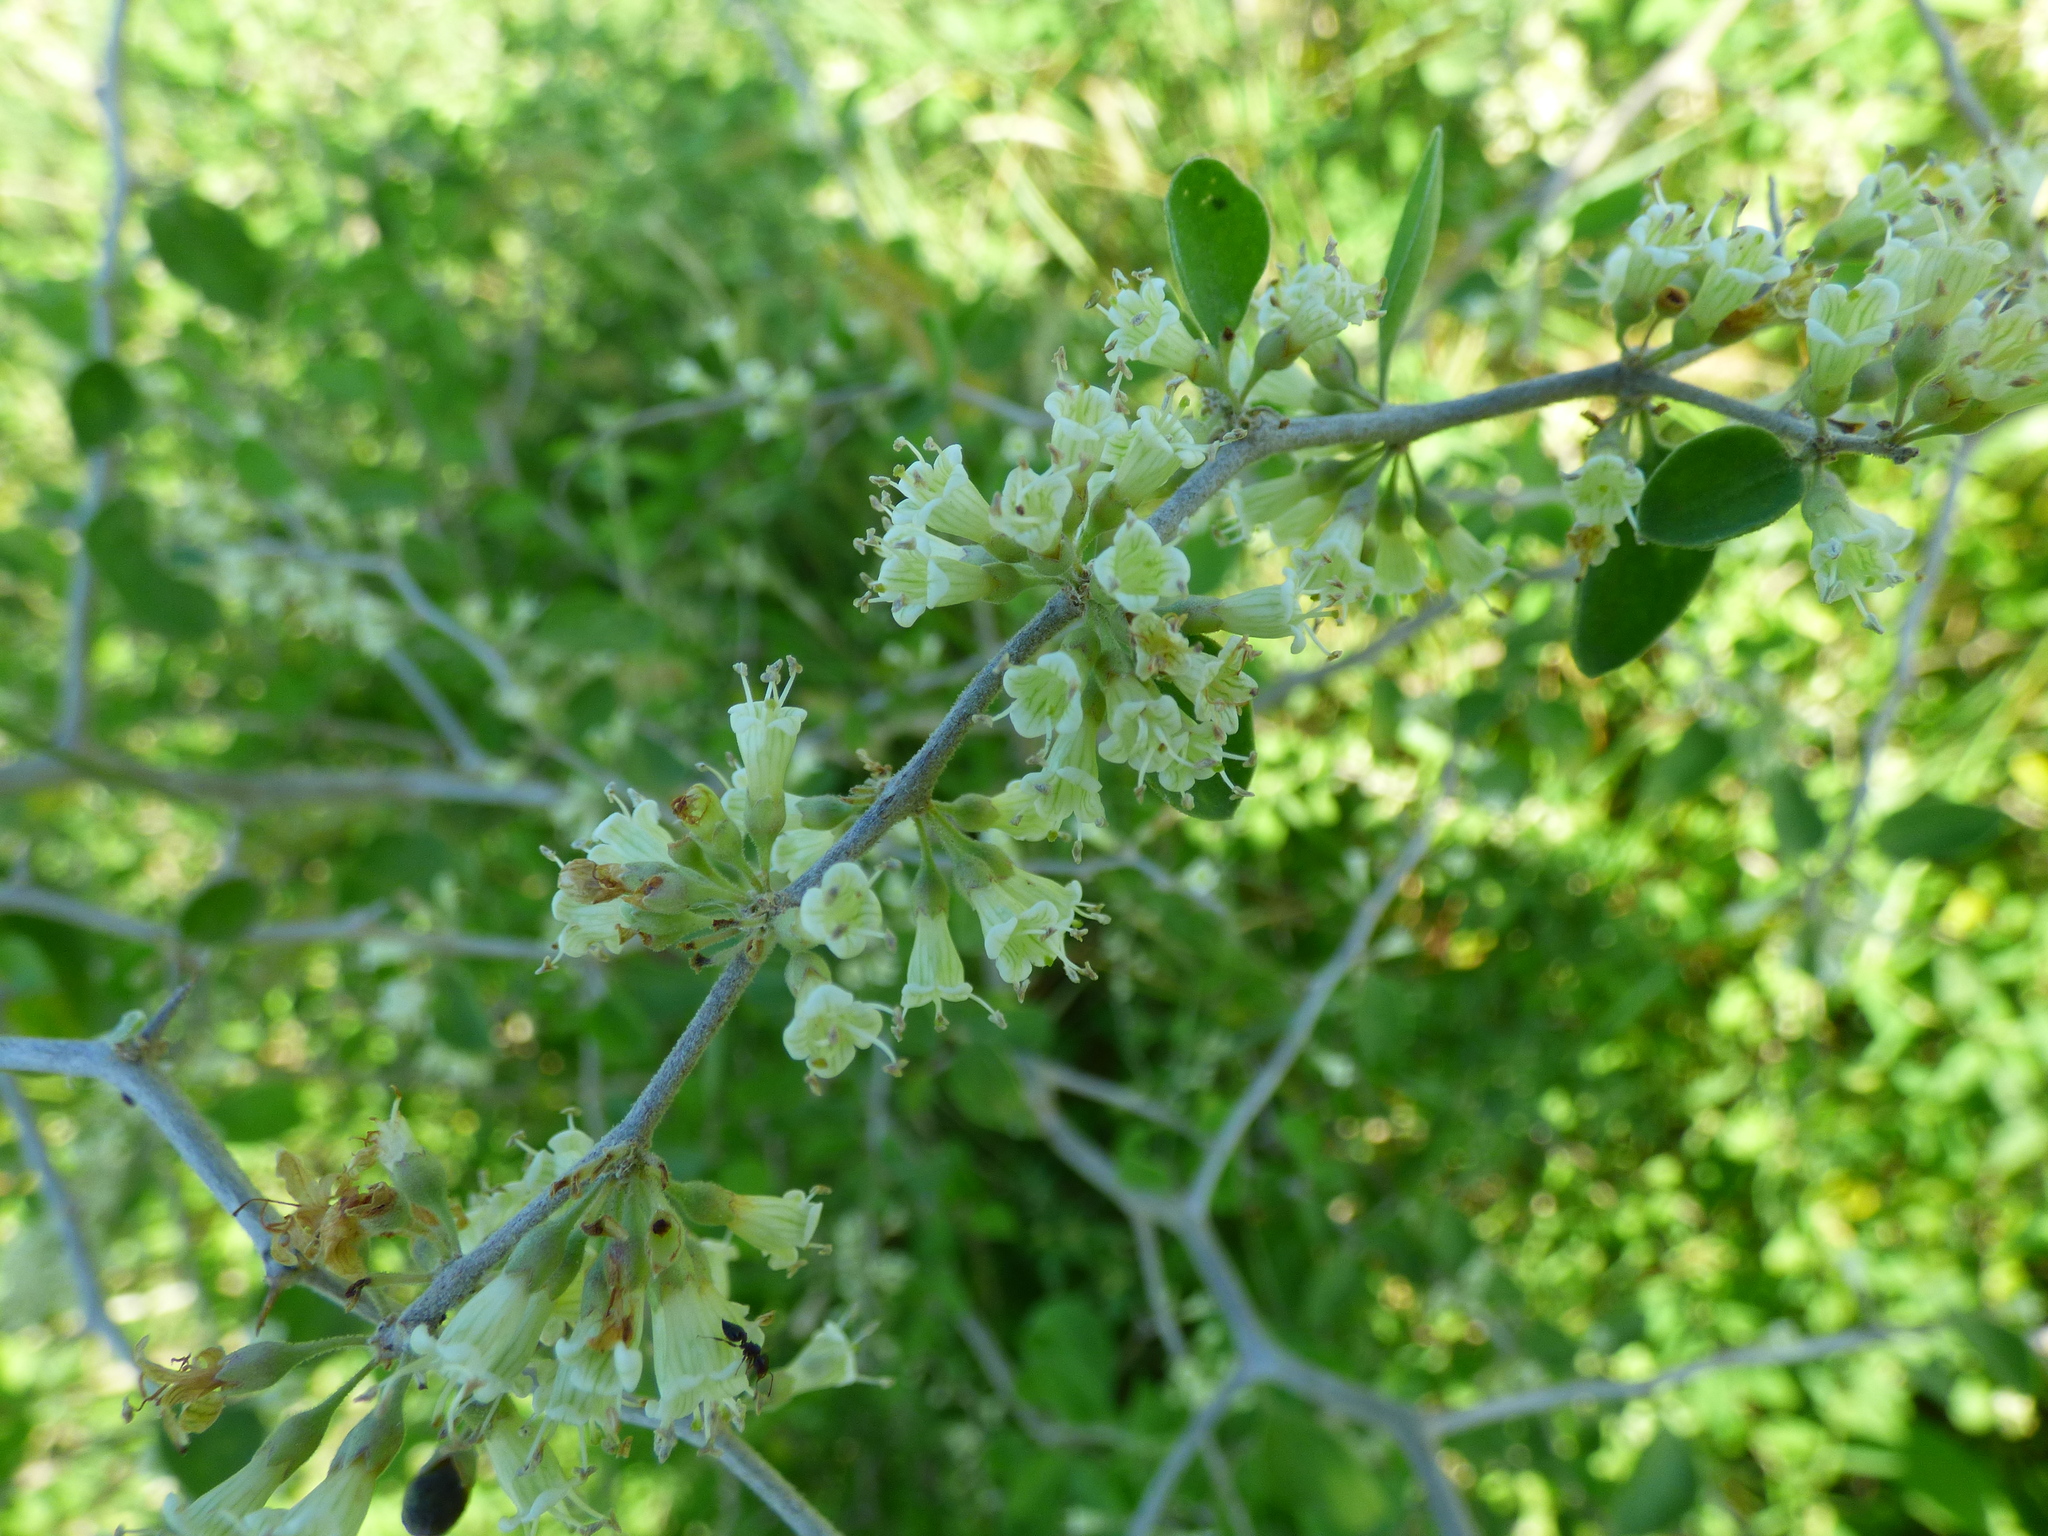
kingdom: Plantae
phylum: Tracheophyta
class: Magnoliopsida
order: Solanales
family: Solanaceae
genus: Lycium
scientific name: Lycium glomeratum
